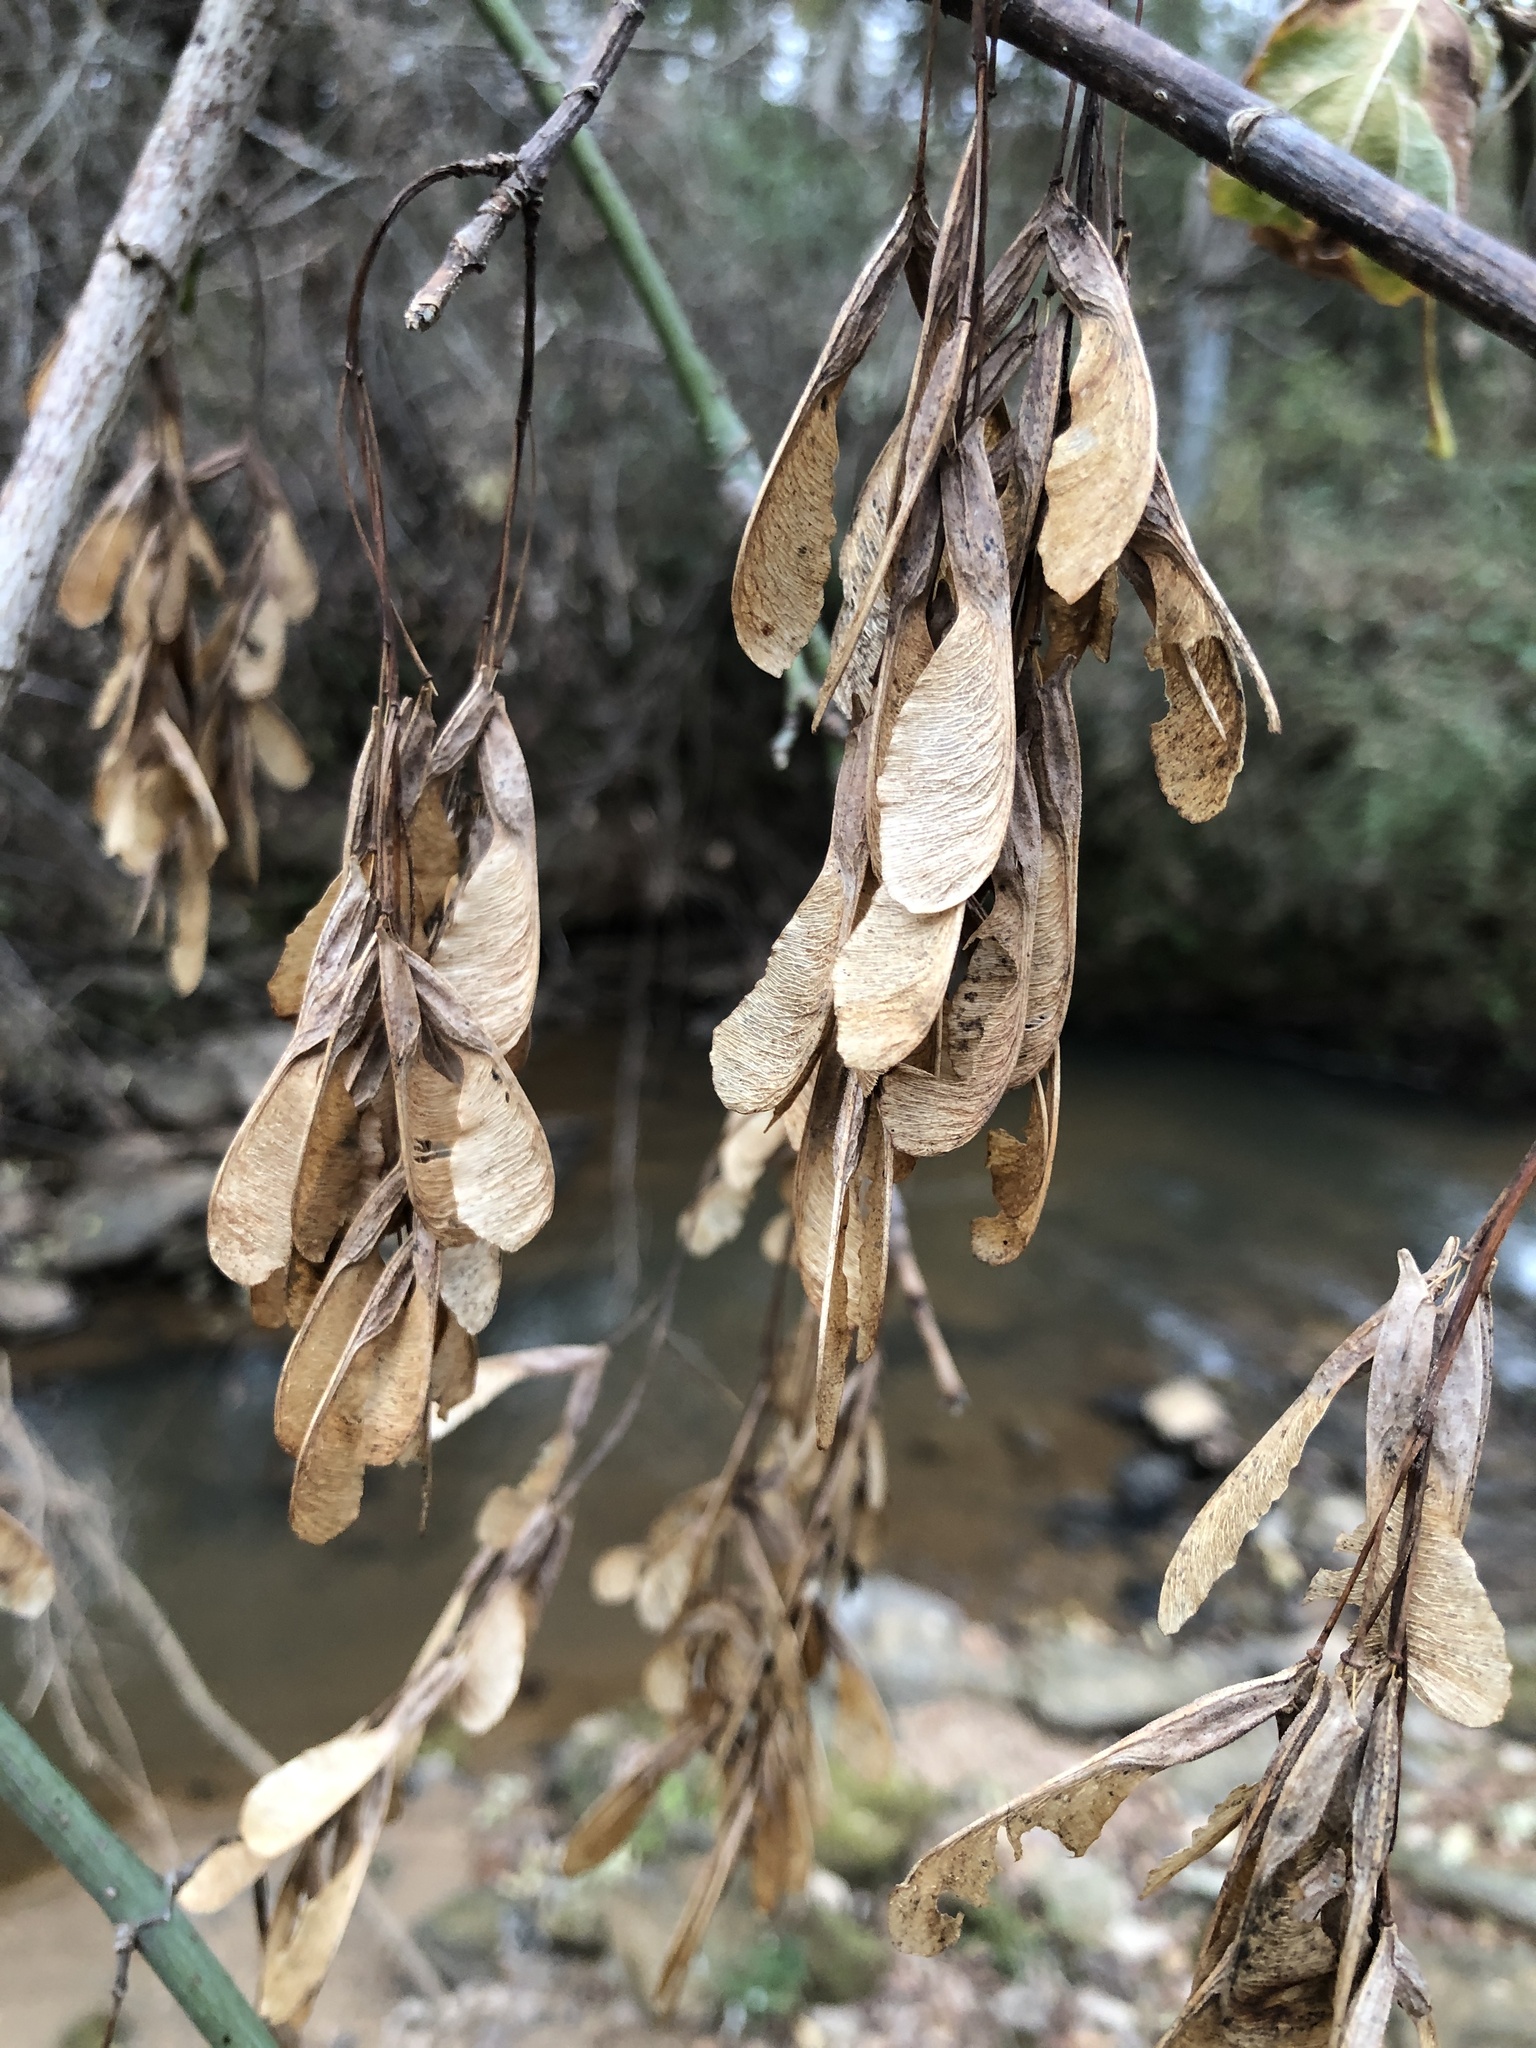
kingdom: Plantae
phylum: Tracheophyta
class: Magnoliopsida
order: Sapindales
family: Sapindaceae
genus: Acer
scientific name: Acer negundo
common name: Ashleaf maple
